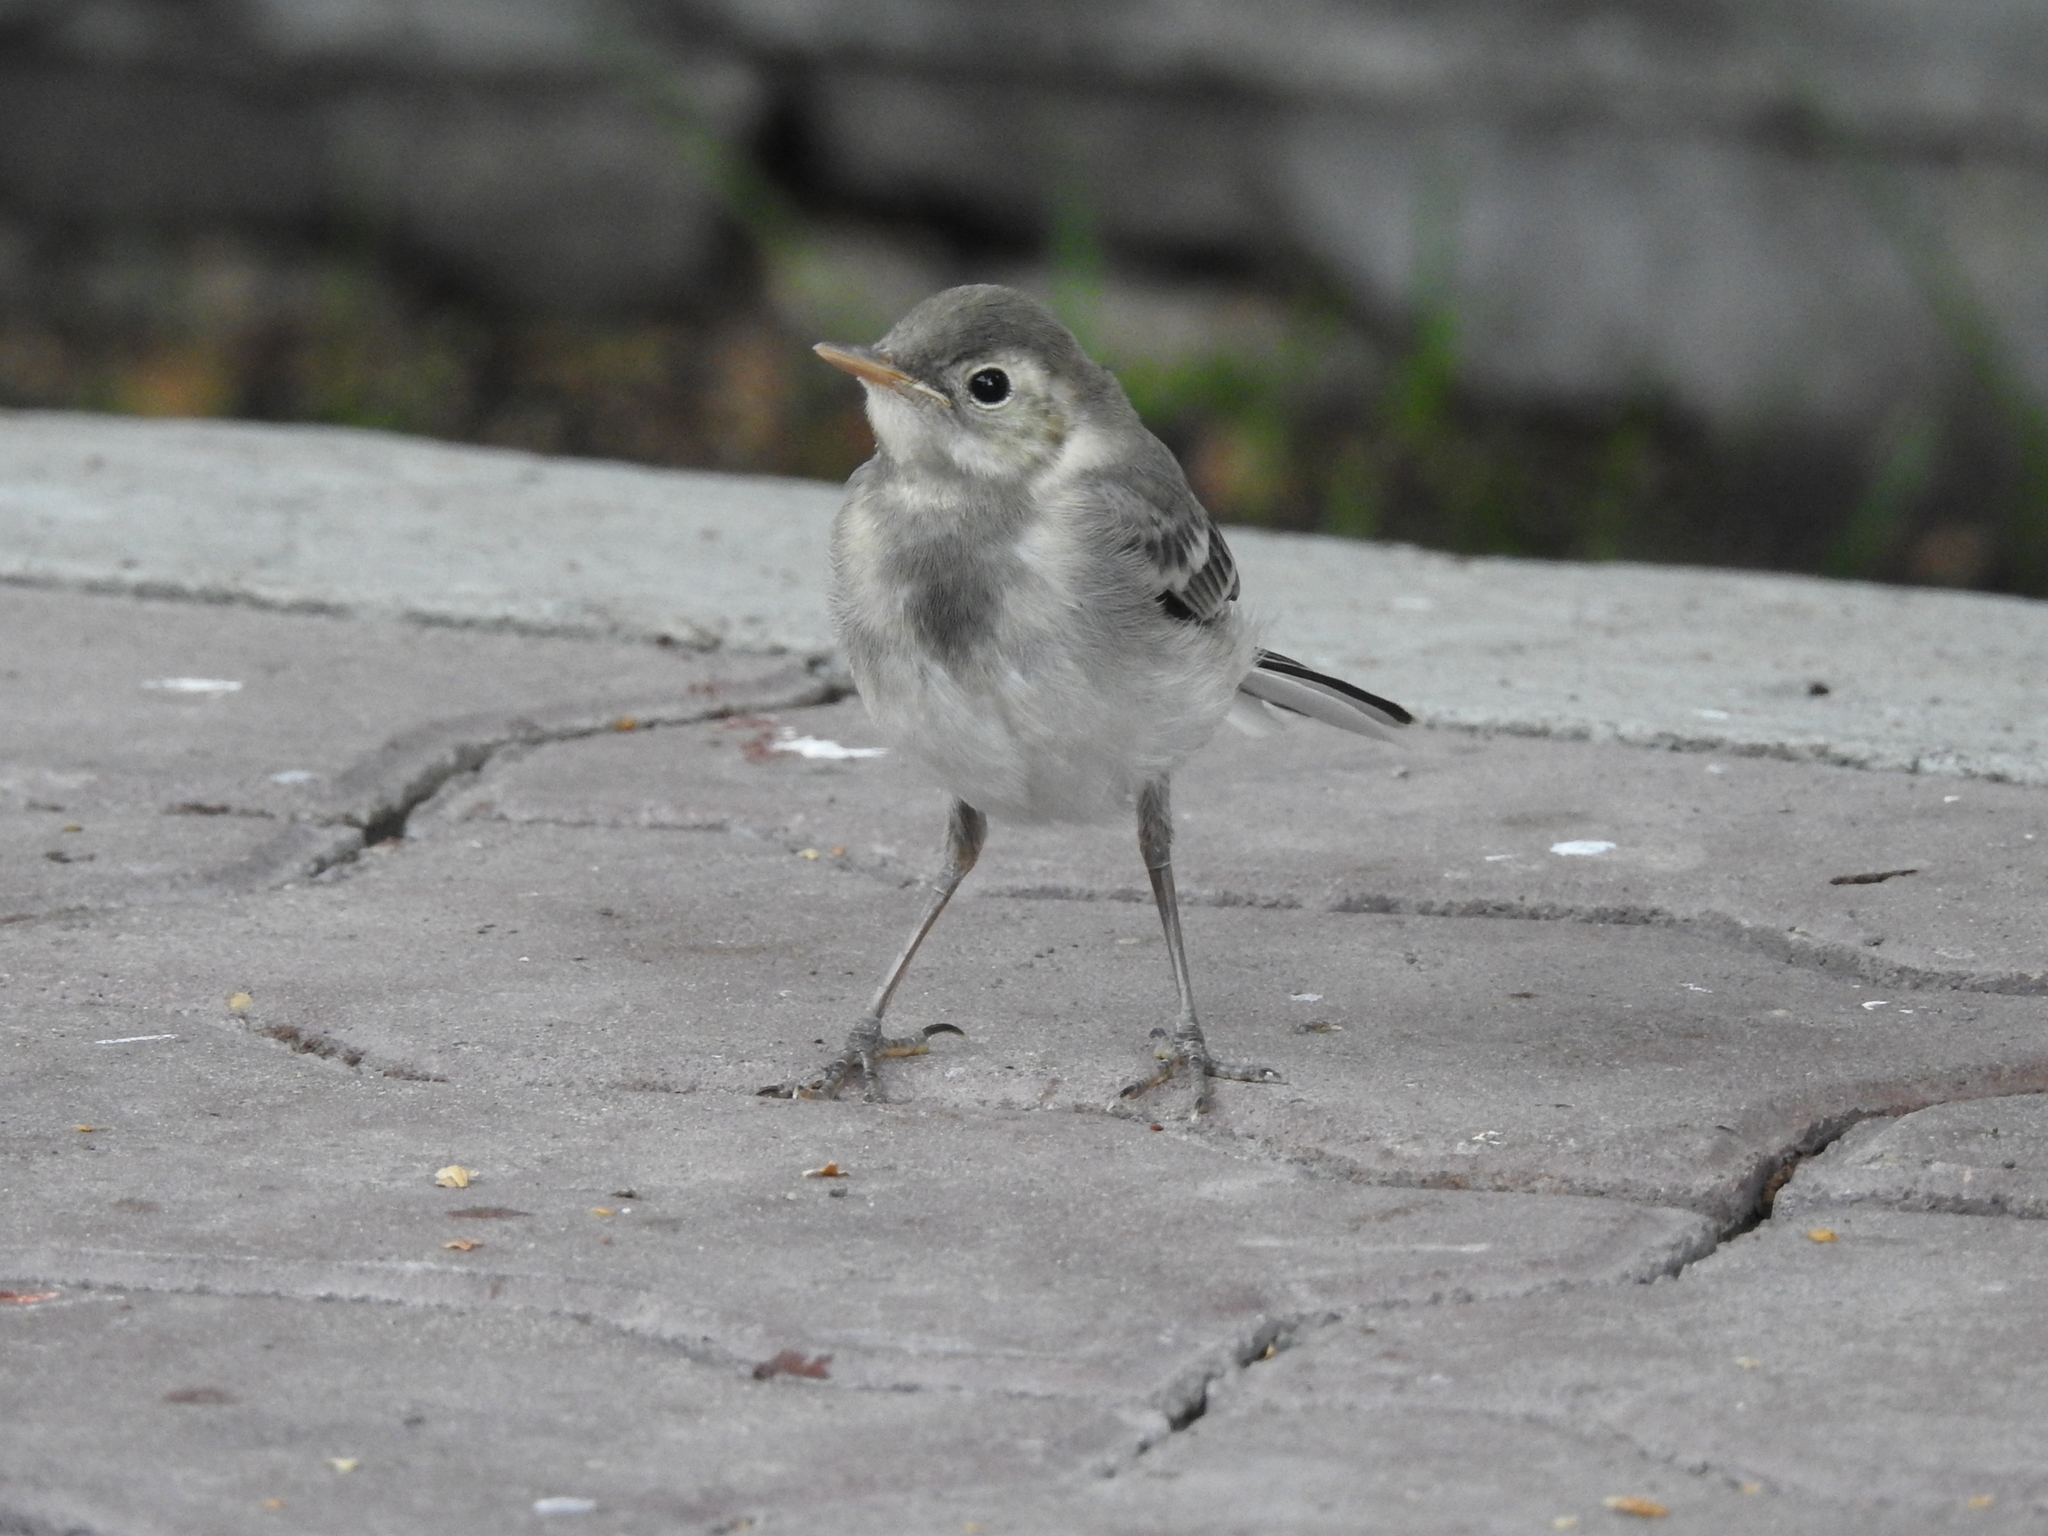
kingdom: Animalia
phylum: Chordata
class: Aves
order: Passeriformes
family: Motacillidae
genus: Motacilla
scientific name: Motacilla alba
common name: White wagtail
